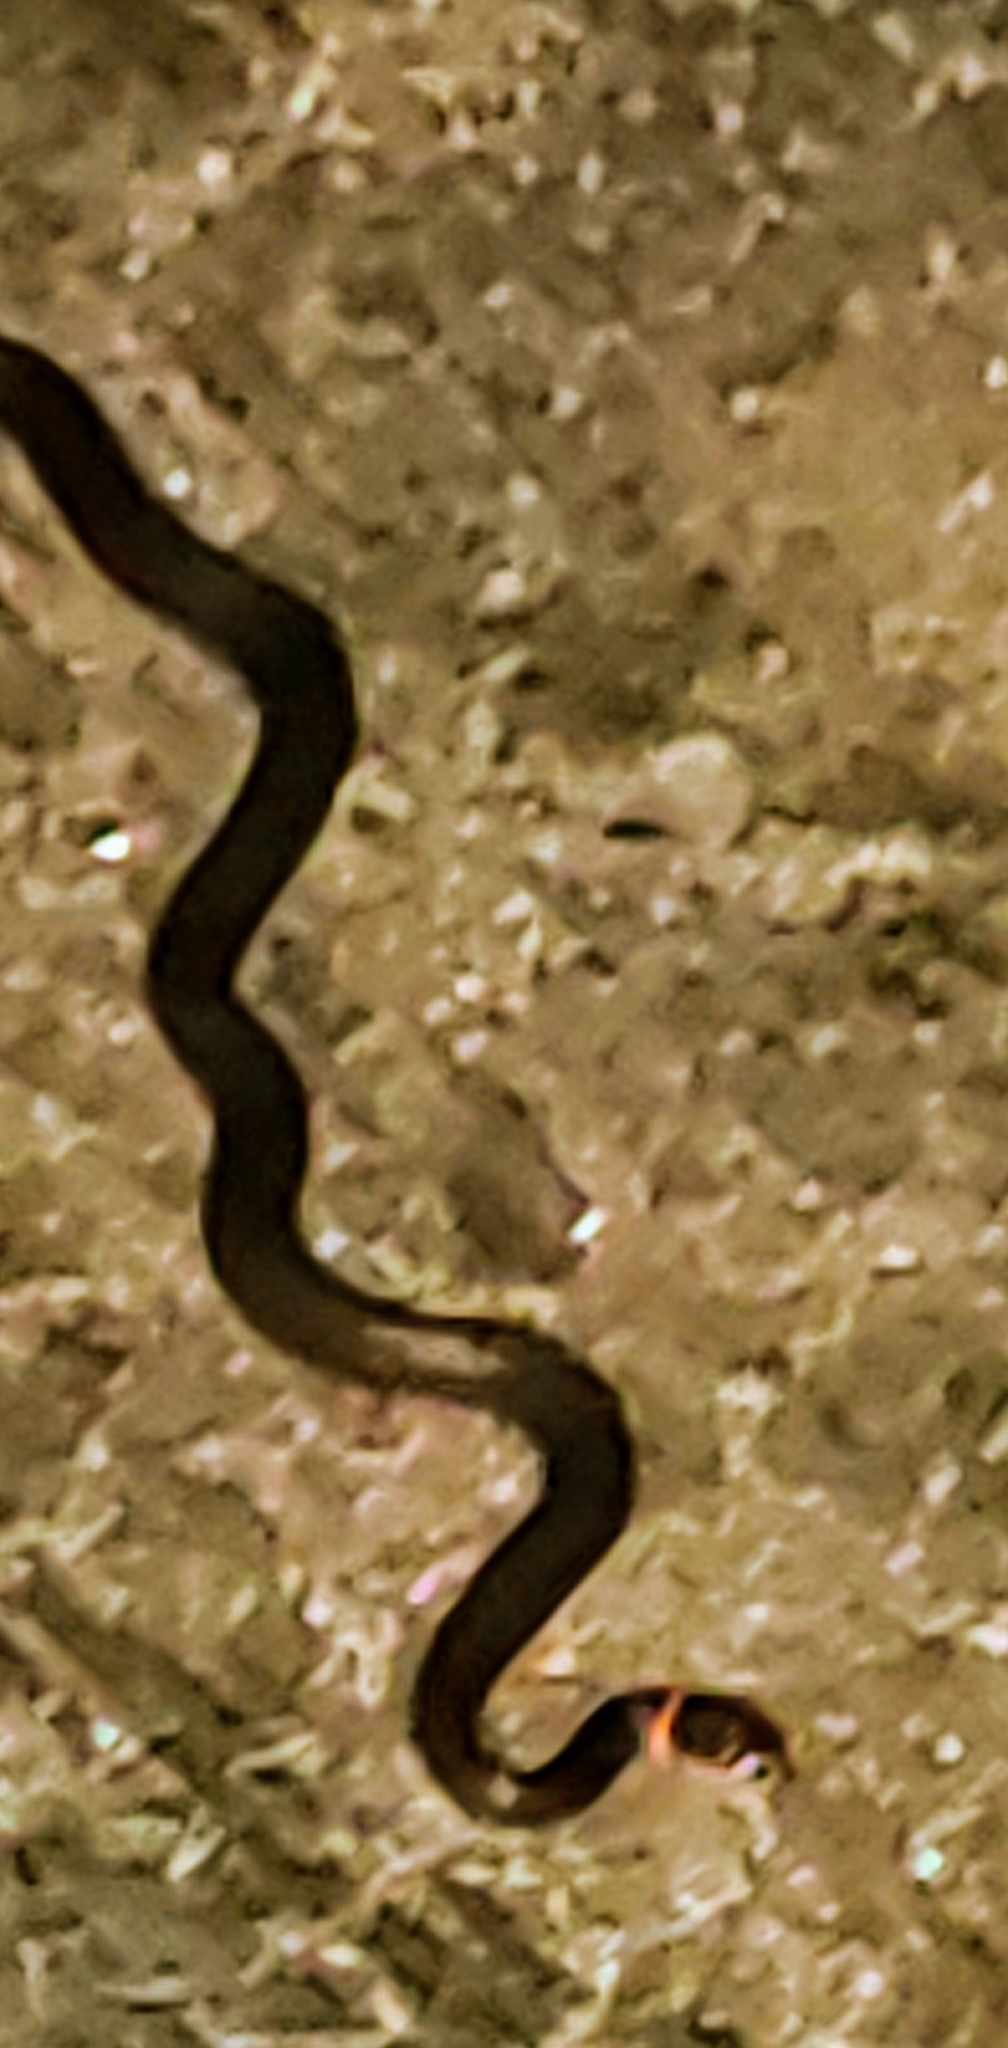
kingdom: Animalia
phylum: Chordata
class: Squamata
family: Colubridae
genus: Diadophis
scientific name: Diadophis punctatus
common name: Ringneck snake
